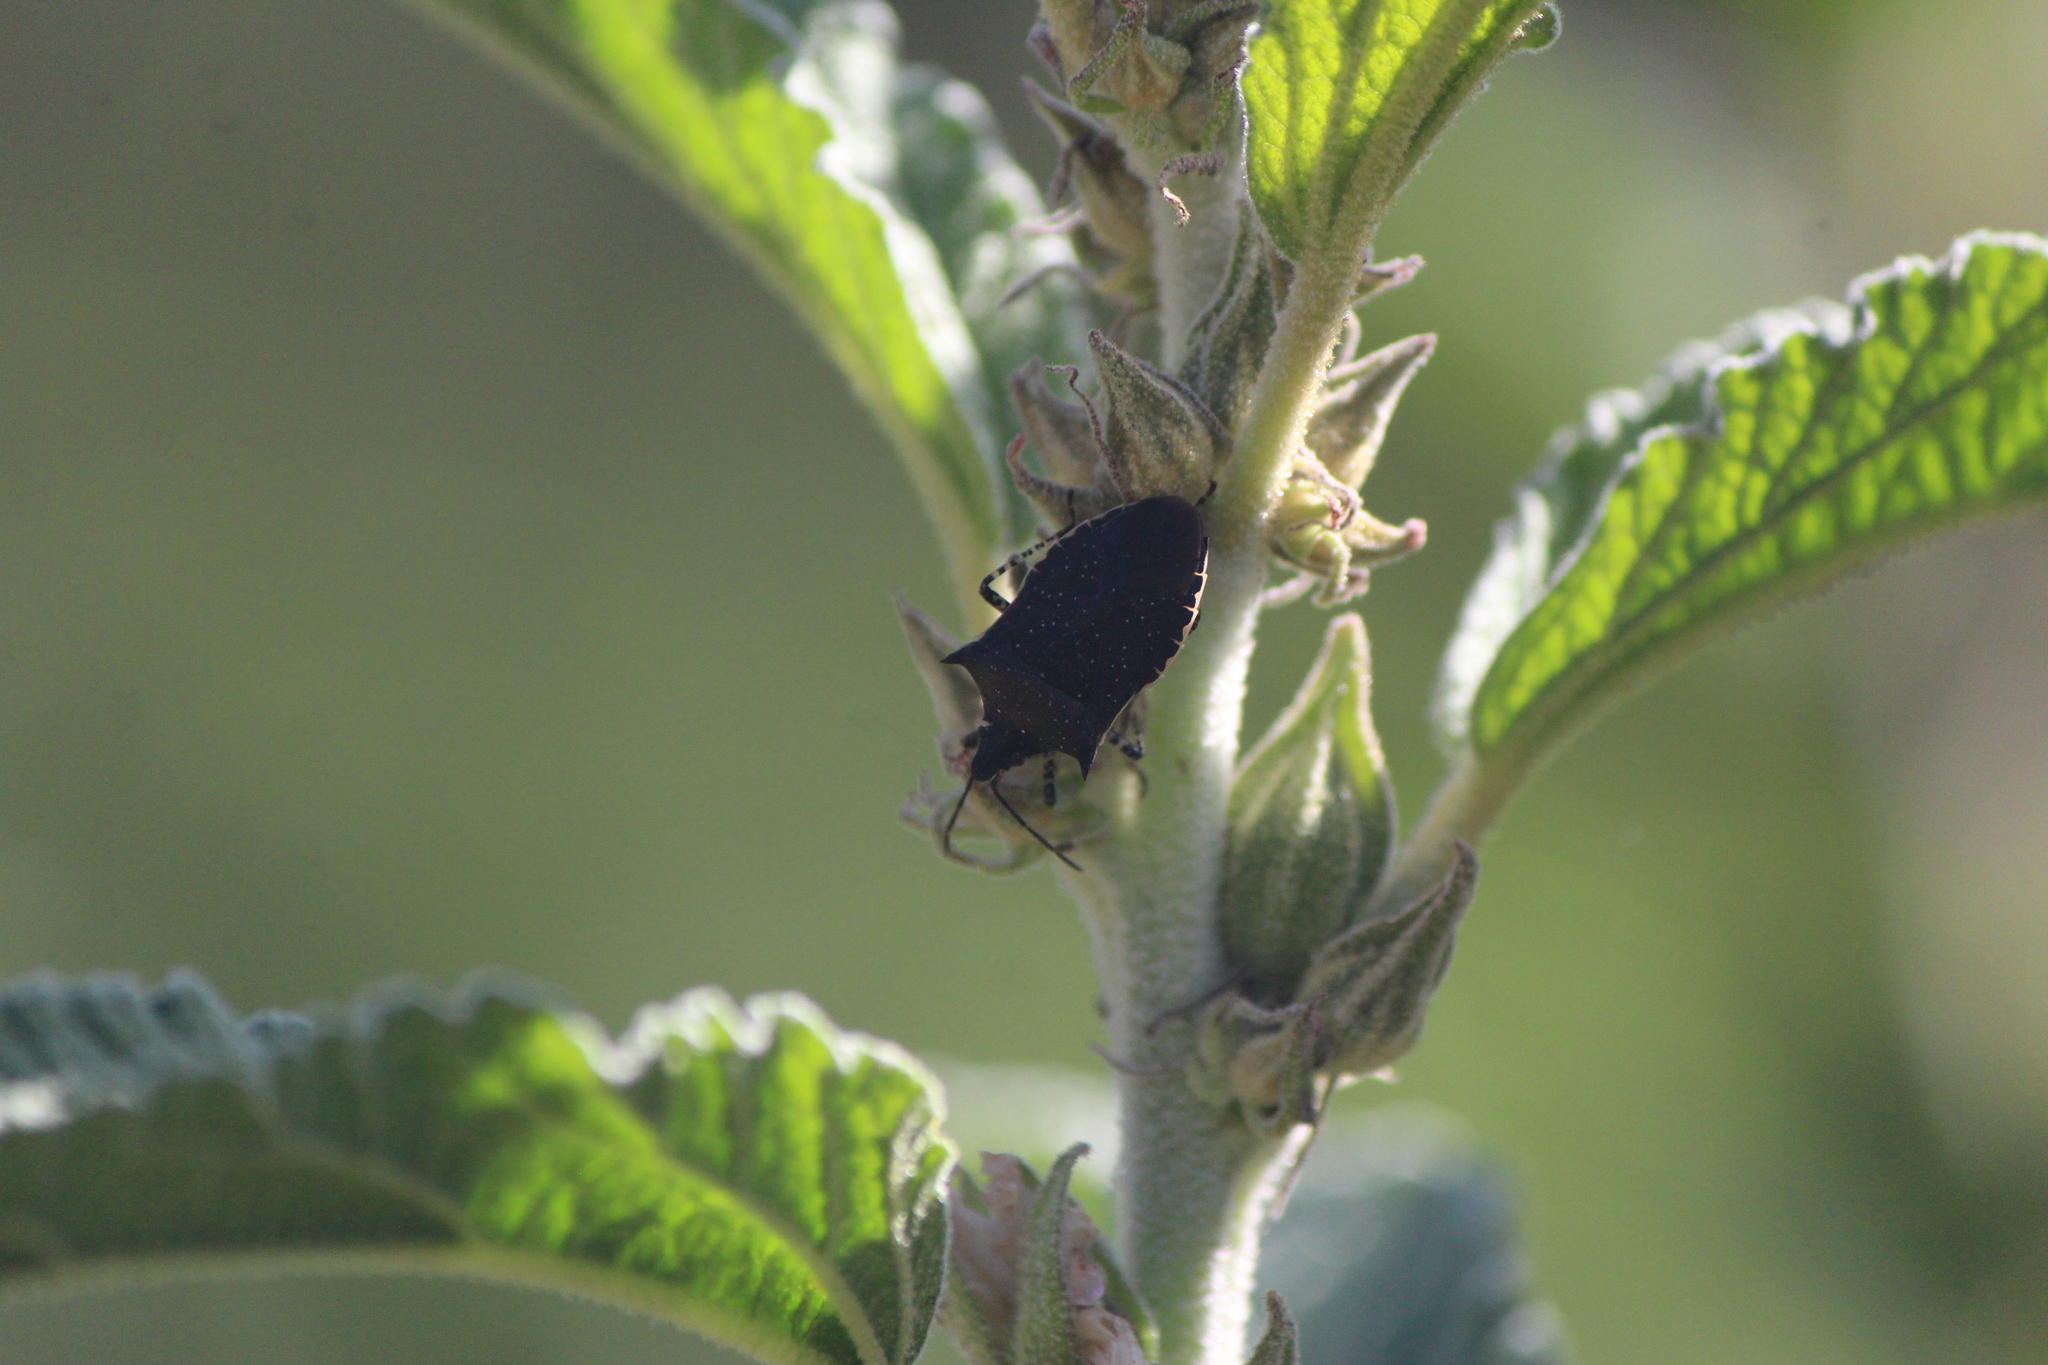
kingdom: Animalia
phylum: Arthropoda
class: Insecta
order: Hemiptera
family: Pentatomidae
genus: Padaeus
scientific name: Padaeus trivittatus
